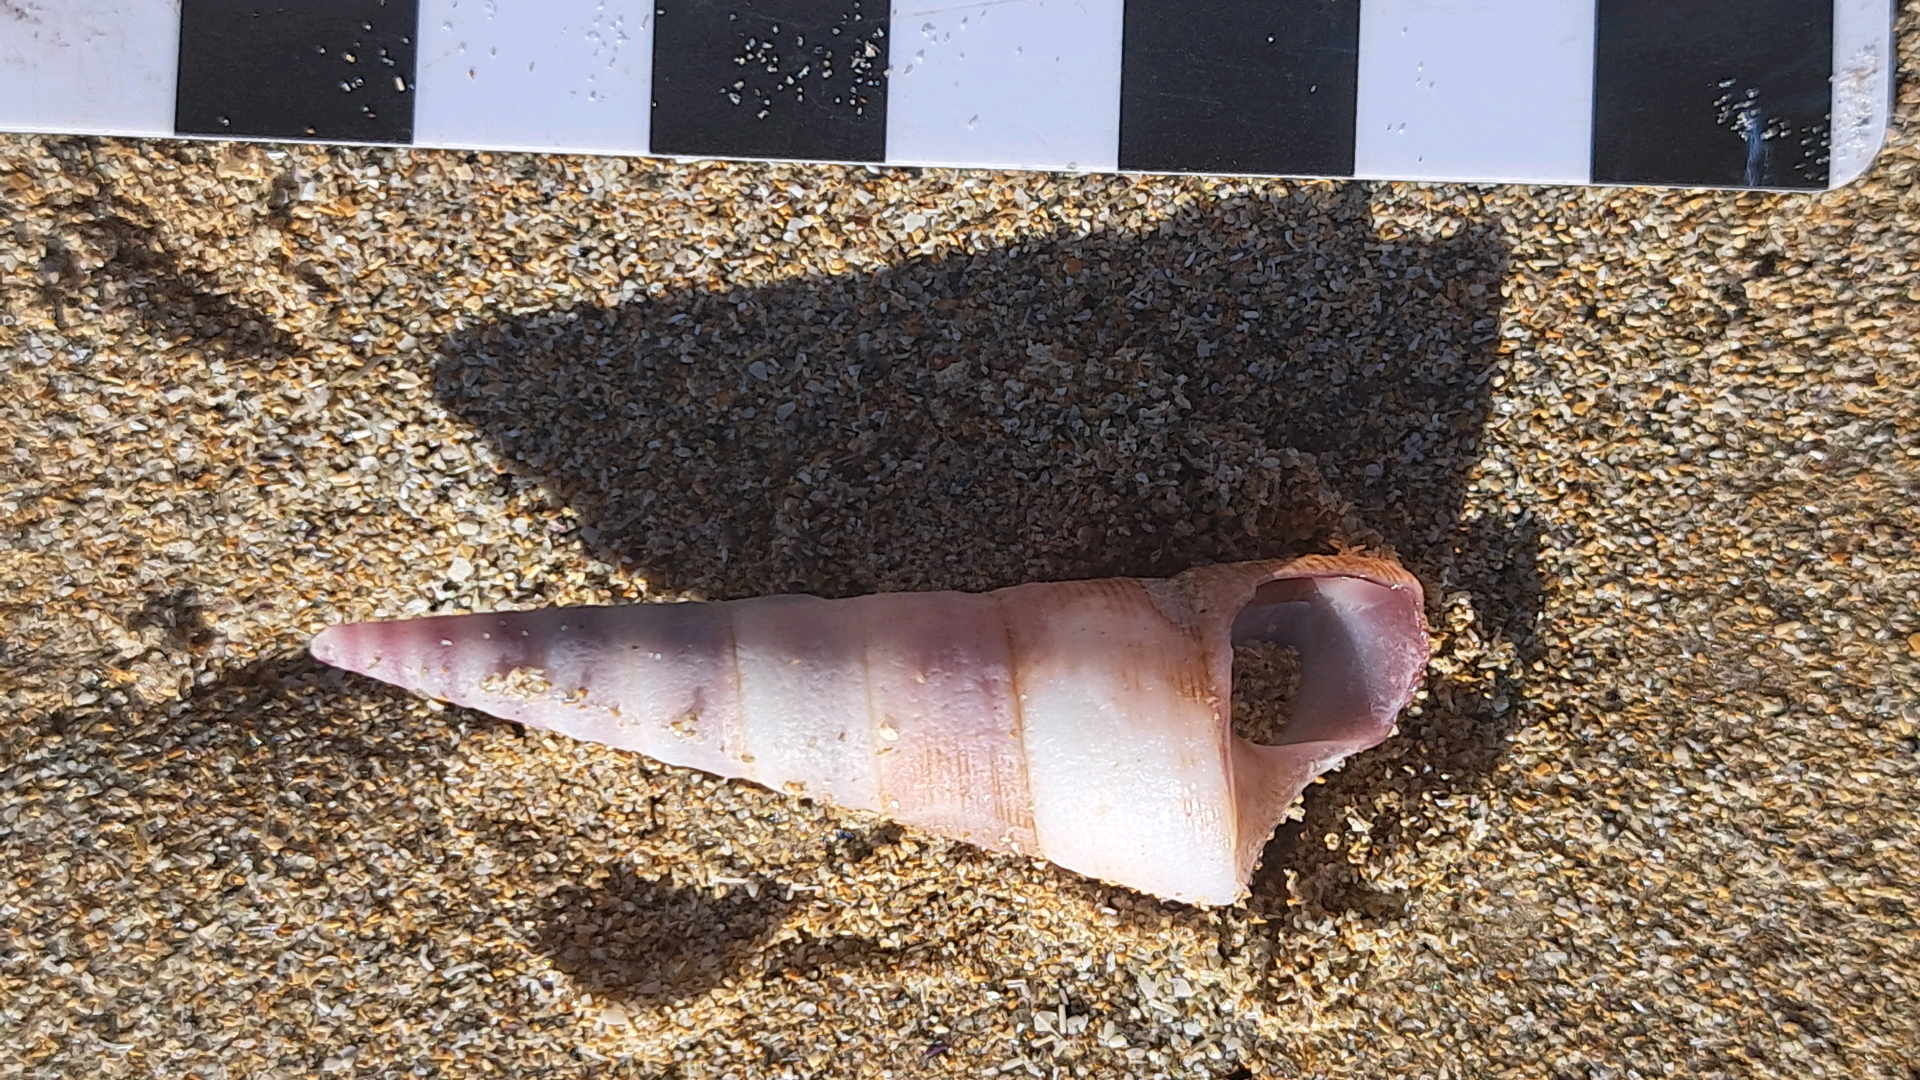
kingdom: Animalia
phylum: Mollusca
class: Gastropoda
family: Turritellidae
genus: Maoricolpus
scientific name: Maoricolpus roseus
